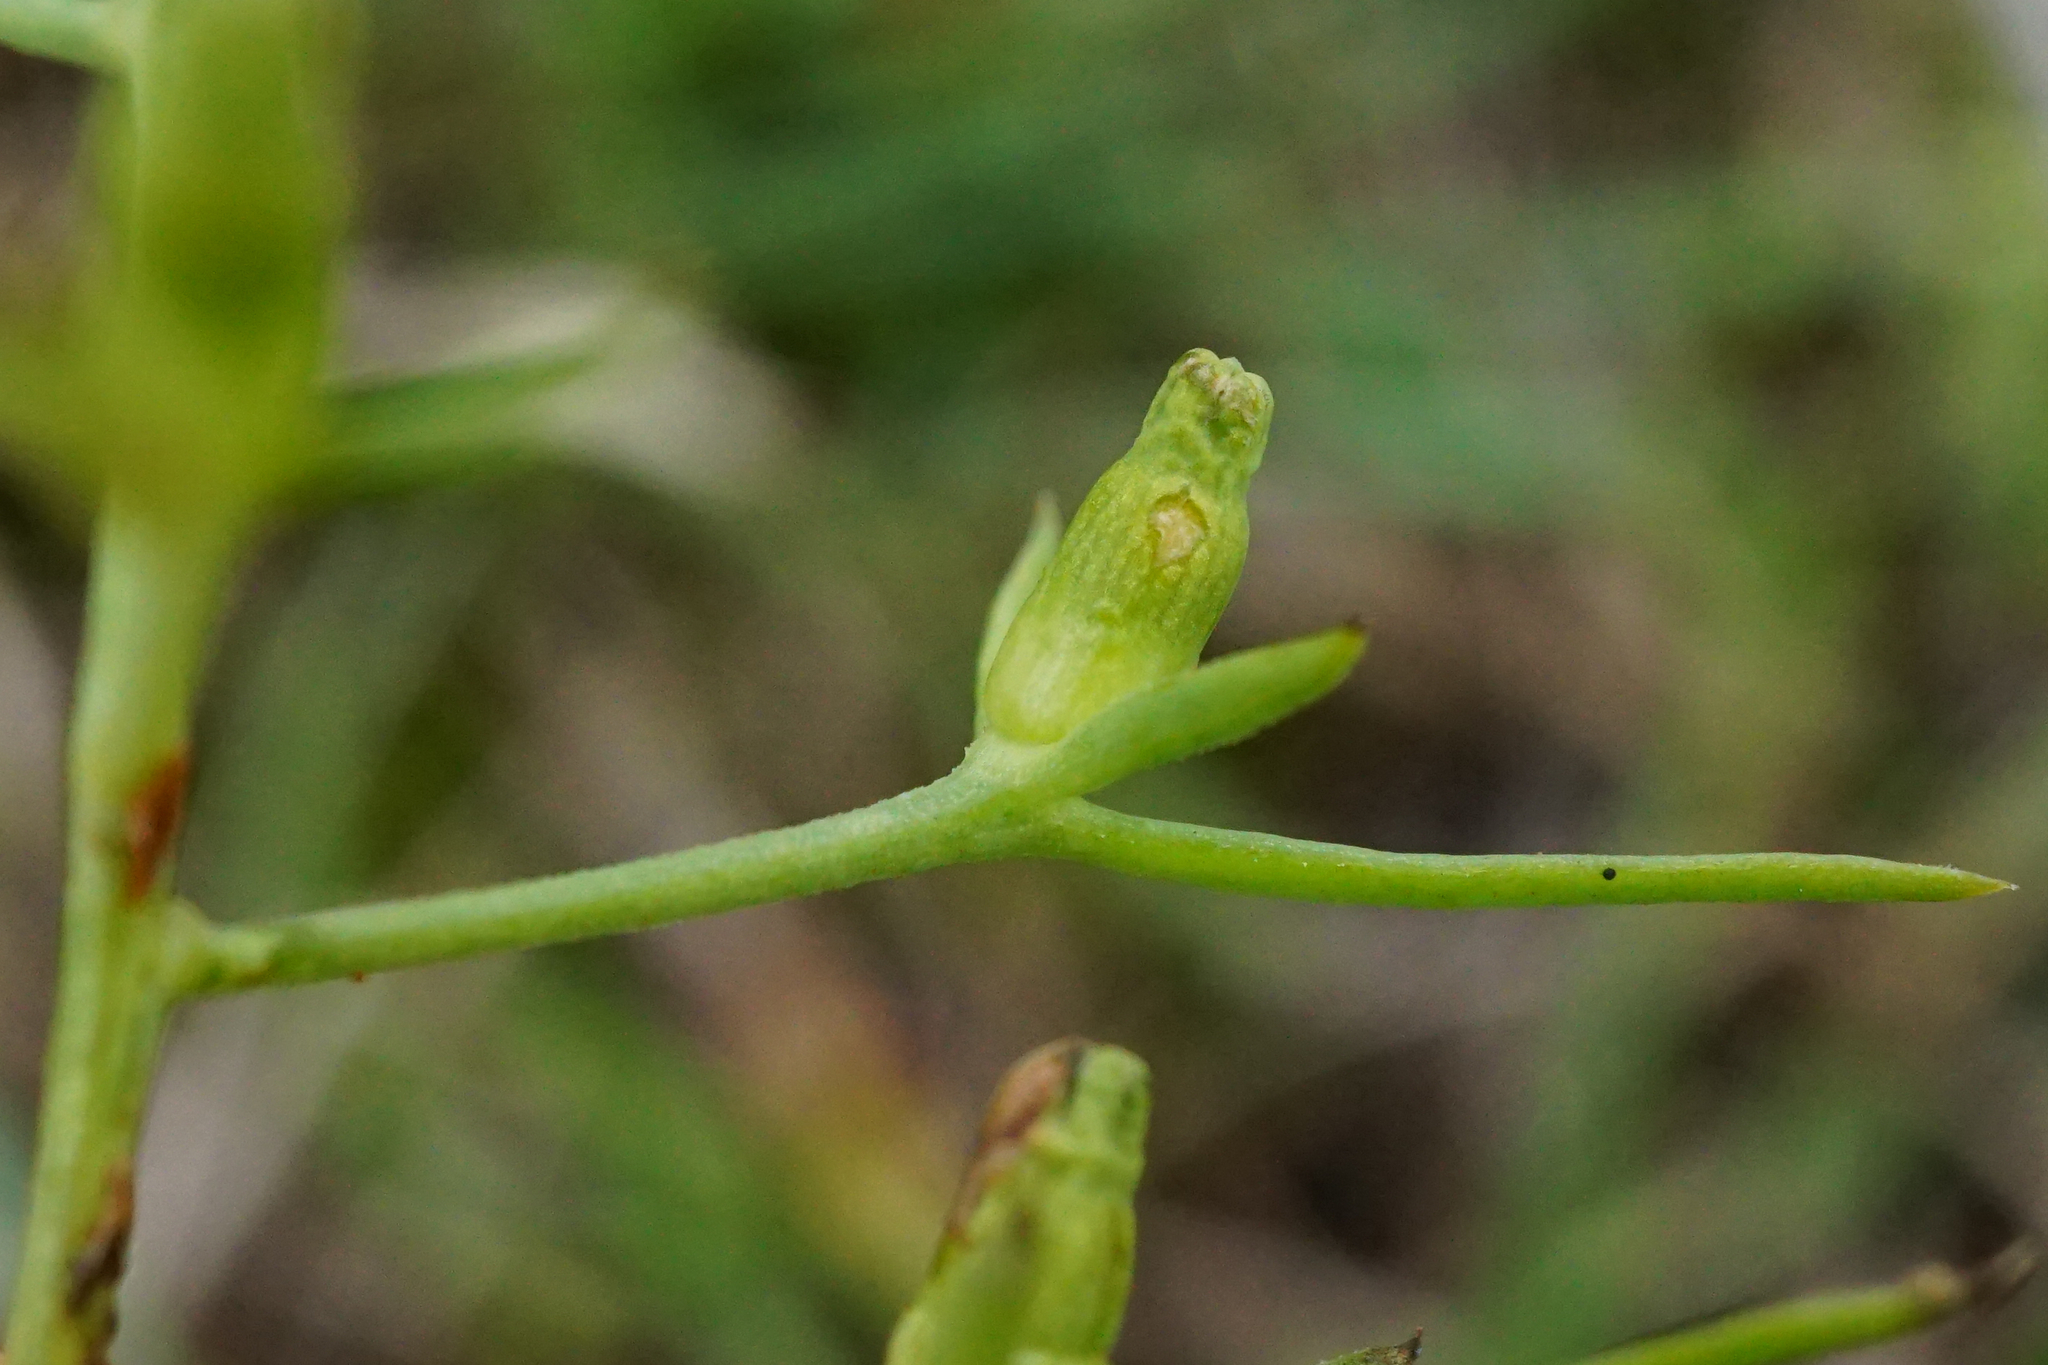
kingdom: Plantae
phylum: Tracheophyta
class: Magnoliopsida
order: Santalales
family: Thesiaceae
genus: Thesium
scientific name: Thesium ramosum
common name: Field thesium
